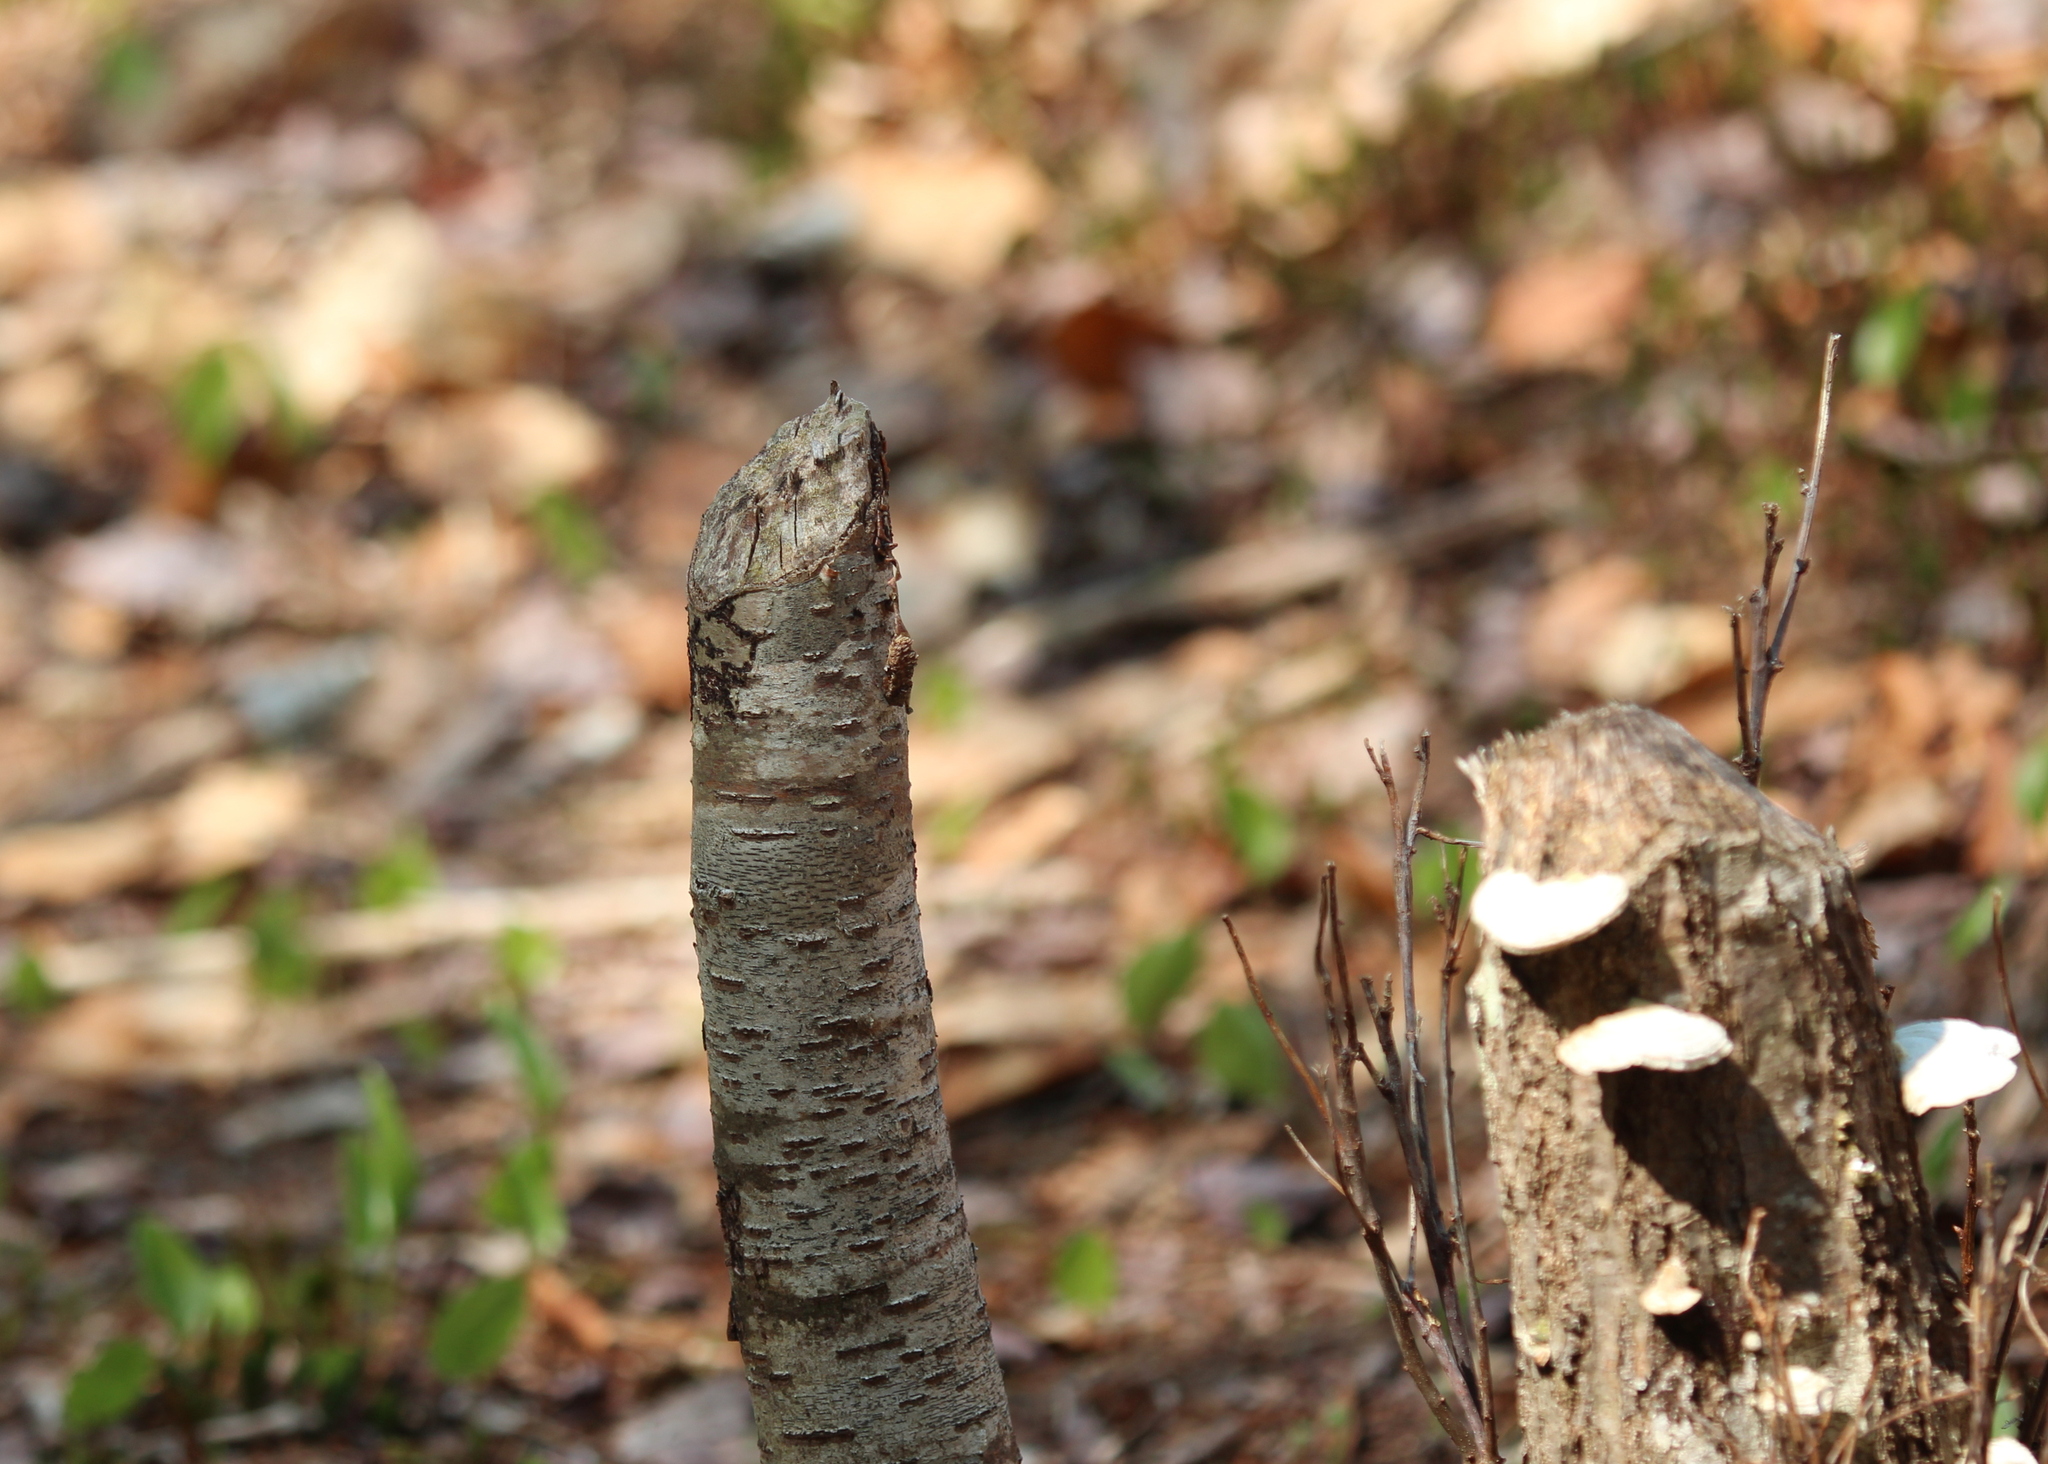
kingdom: Animalia
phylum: Chordata
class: Mammalia
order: Rodentia
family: Castoridae
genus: Castor
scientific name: Castor canadensis
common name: American beaver
